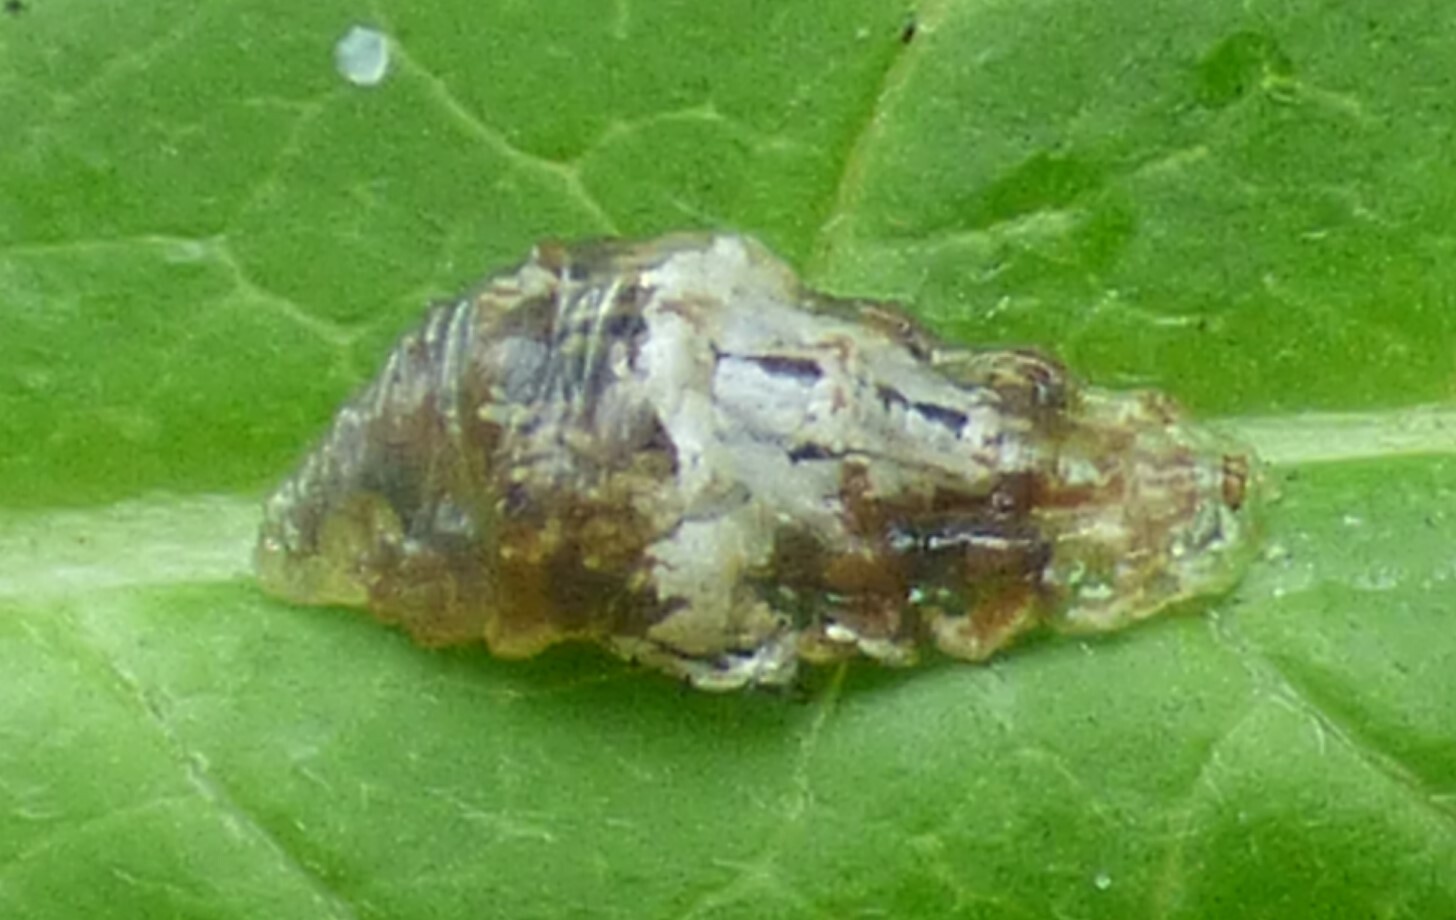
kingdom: Animalia
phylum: Arthropoda
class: Insecta
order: Diptera
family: Syrphidae
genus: Ocyptamus
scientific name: Ocyptamus fuscipennis
